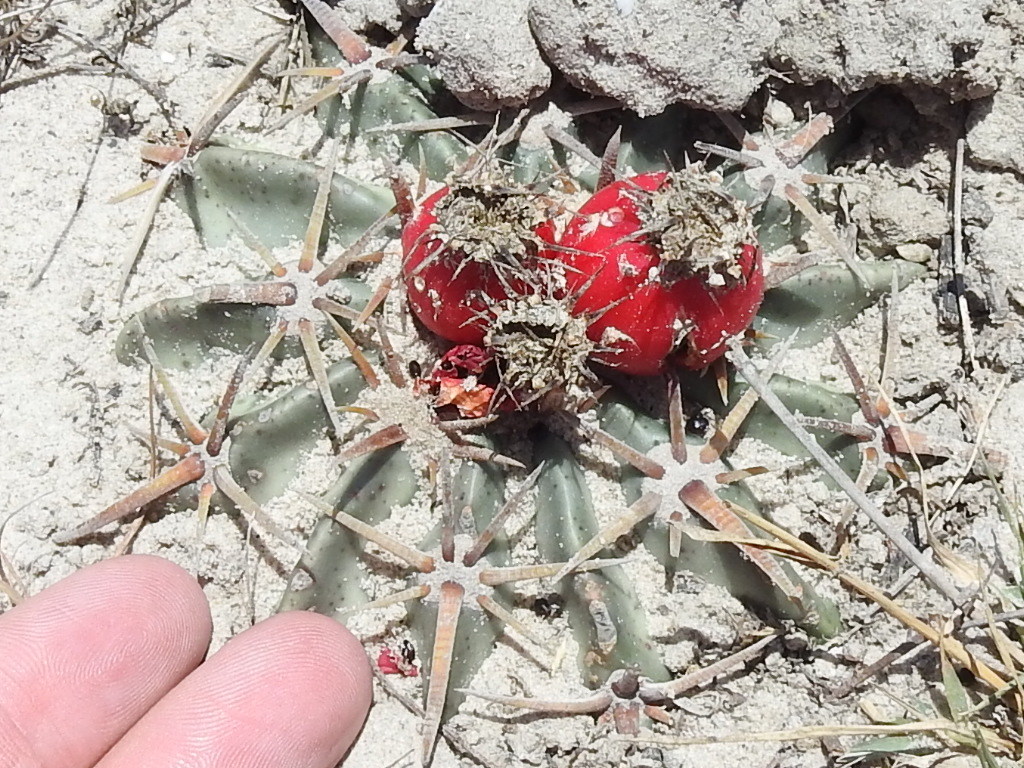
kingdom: Plantae
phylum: Tracheophyta
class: Magnoliopsida
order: Caryophyllales
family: Cactaceae
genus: Echinocactus
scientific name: Echinocactus texensis
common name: Devil's pincushion
